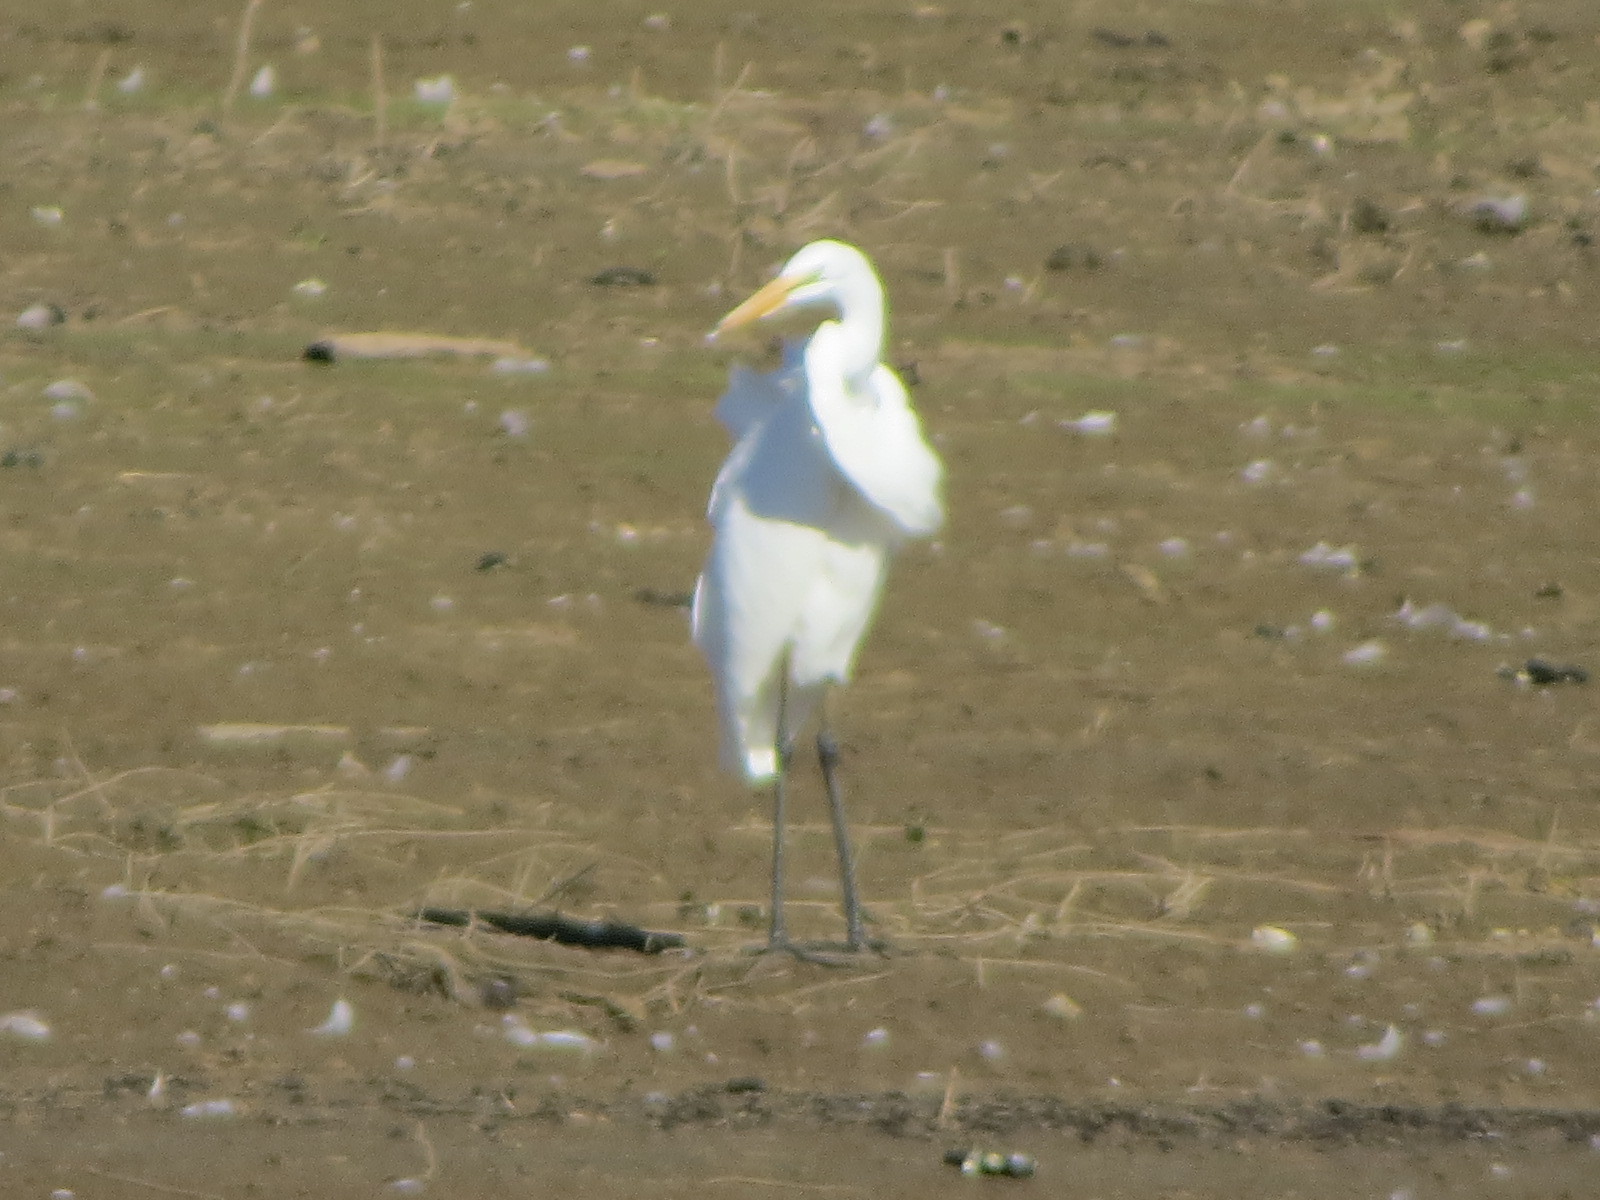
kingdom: Animalia
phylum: Chordata
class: Aves
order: Pelecaniformes
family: Ardeidae
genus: Ardea
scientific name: Ardea alba
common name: Great egret
